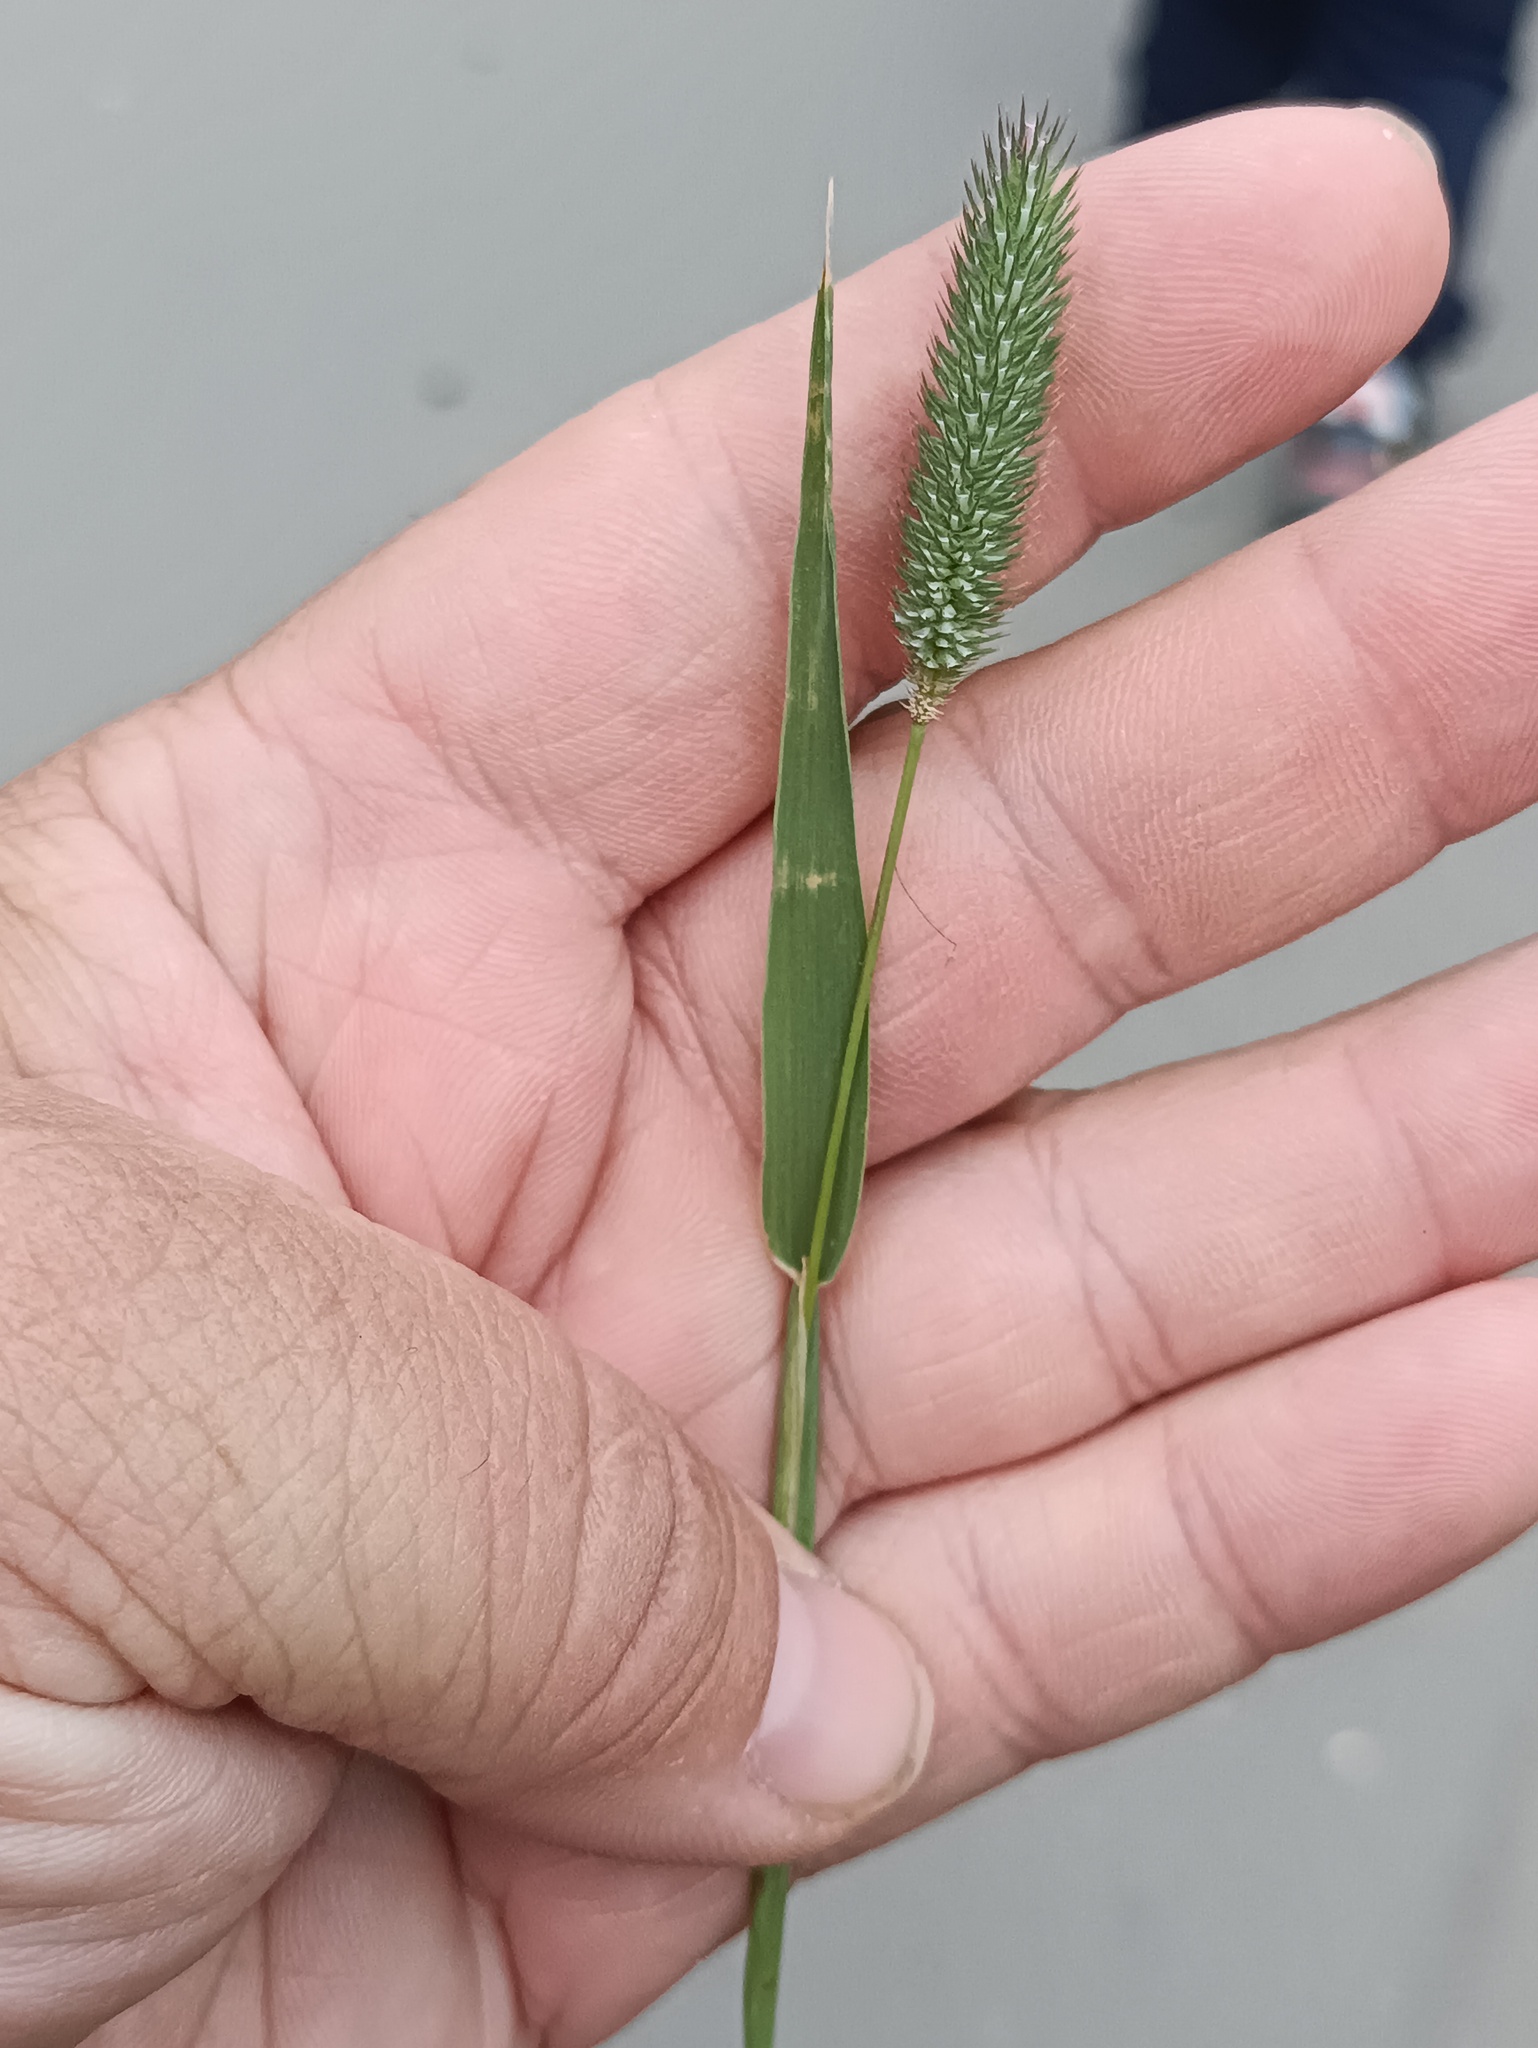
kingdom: Plantae
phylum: Tracheophyta
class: Liliopsida
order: Poales
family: Poaceae
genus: Phleum
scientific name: Phleum pratense
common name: Timothy grass
